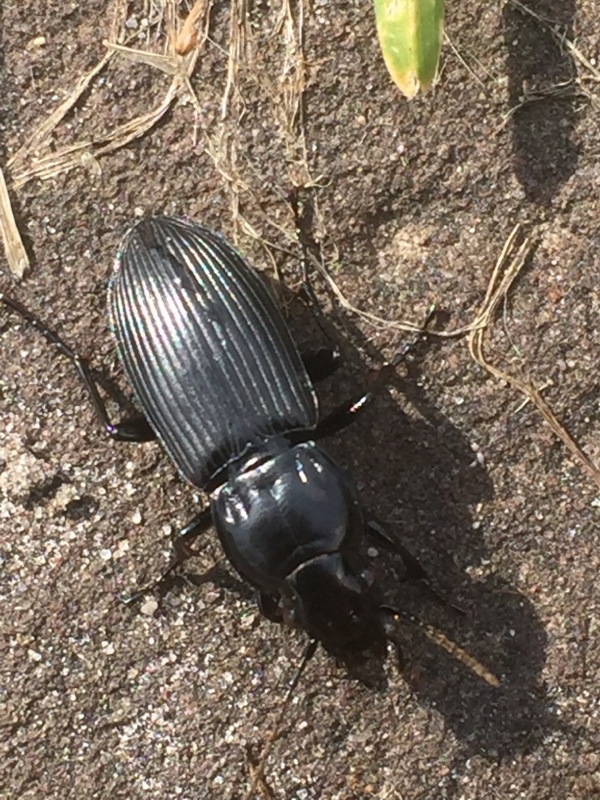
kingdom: Animalia
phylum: Arthropoda
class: Insecta
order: Coleoptera
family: Carabidae
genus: Pterostichus
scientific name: Pterostichus melanarius
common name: European dark harp ground beetle
